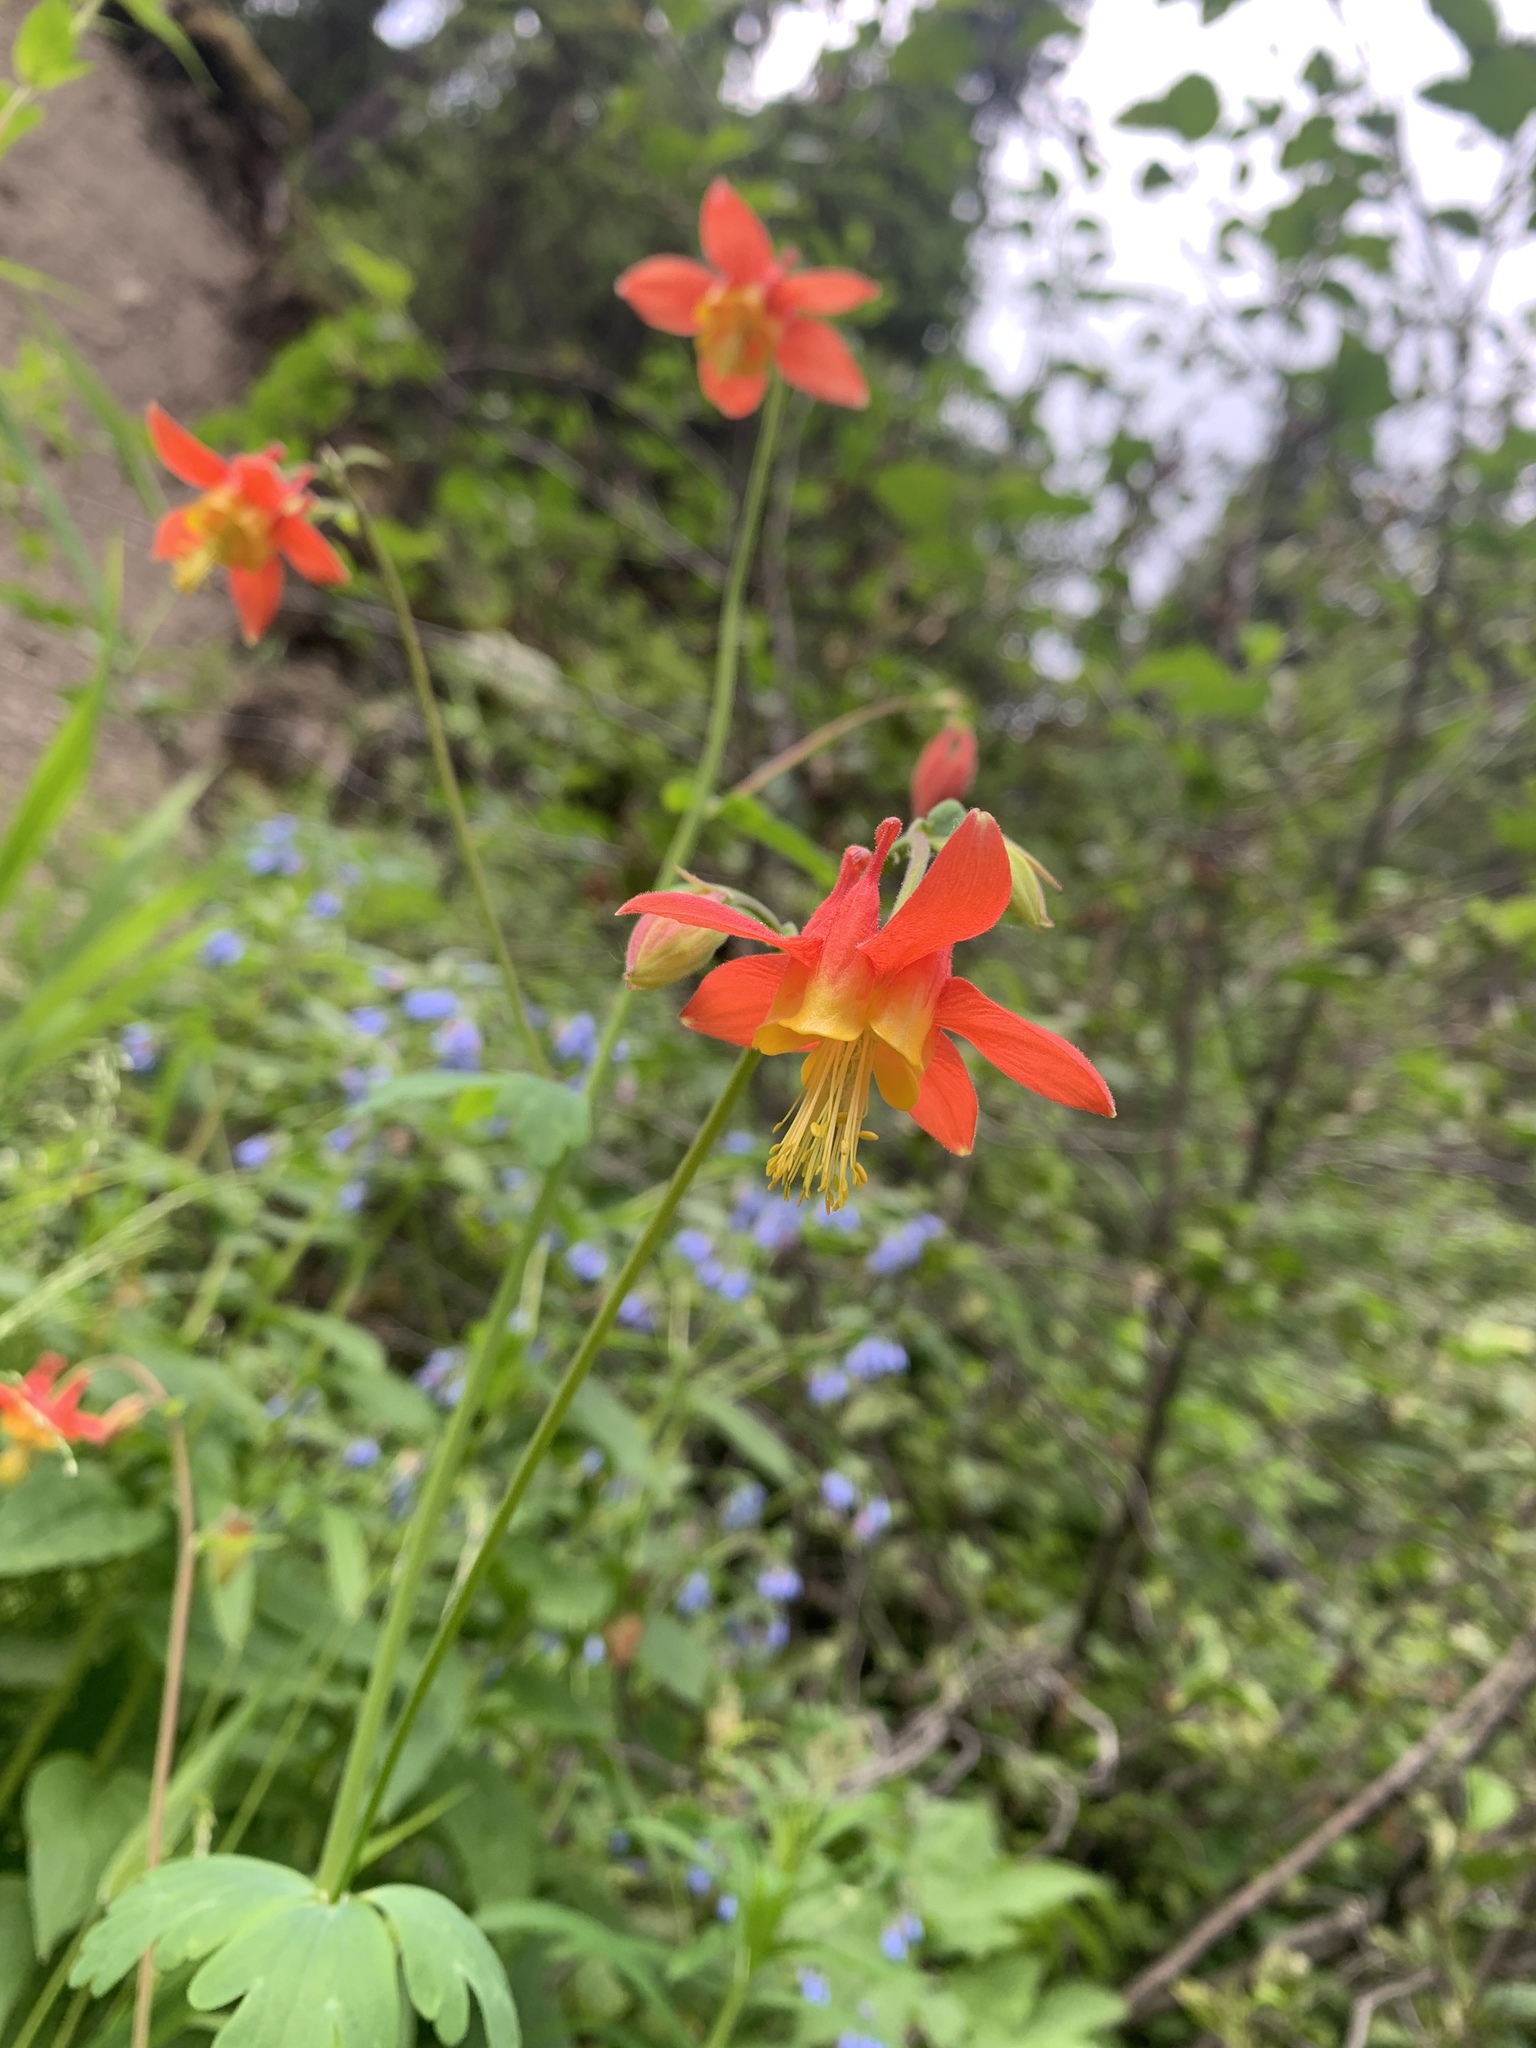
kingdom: Plantae
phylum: Tracheophyta
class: Magnoliopsida
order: Ranunculales
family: Ranunculaceae
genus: Aquilegia
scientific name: Aquilegia formosa
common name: Sitka columbine
